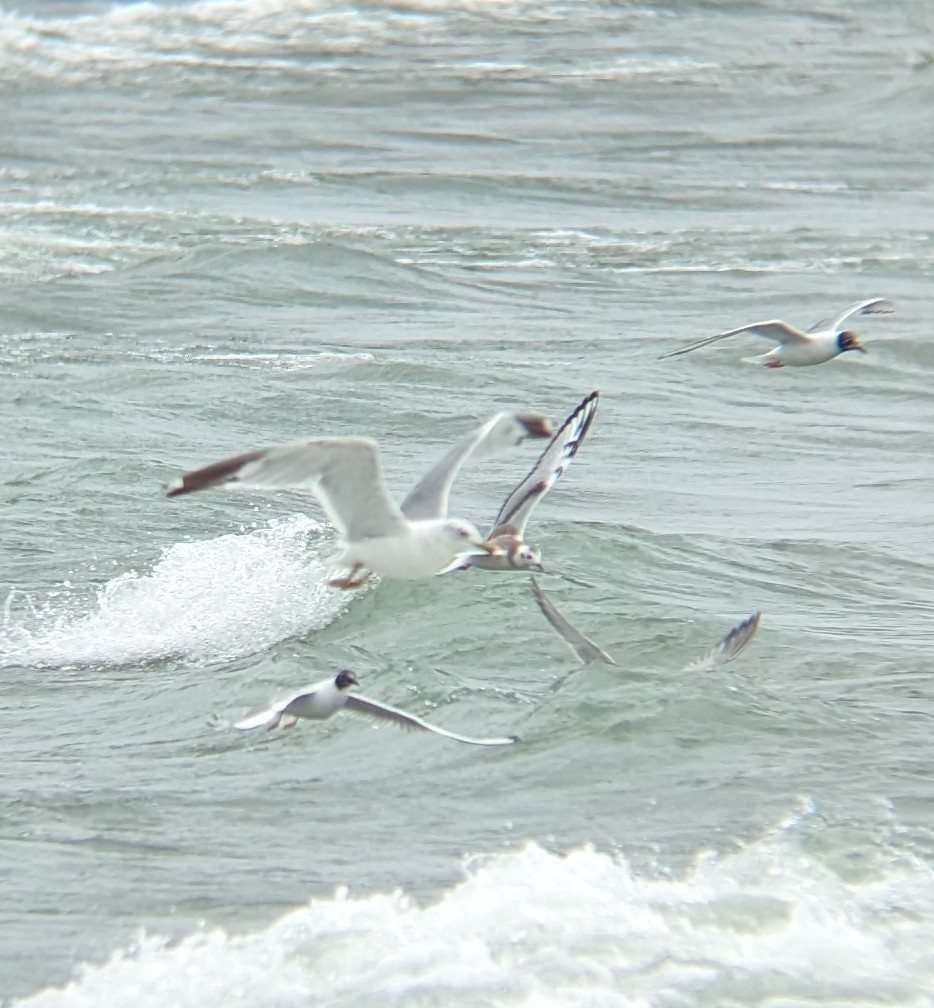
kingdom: Animalia
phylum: Chordata
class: Aves
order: Charadriiformes
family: Laridae
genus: Larus
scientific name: Larus argentatus
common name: Herring gull
